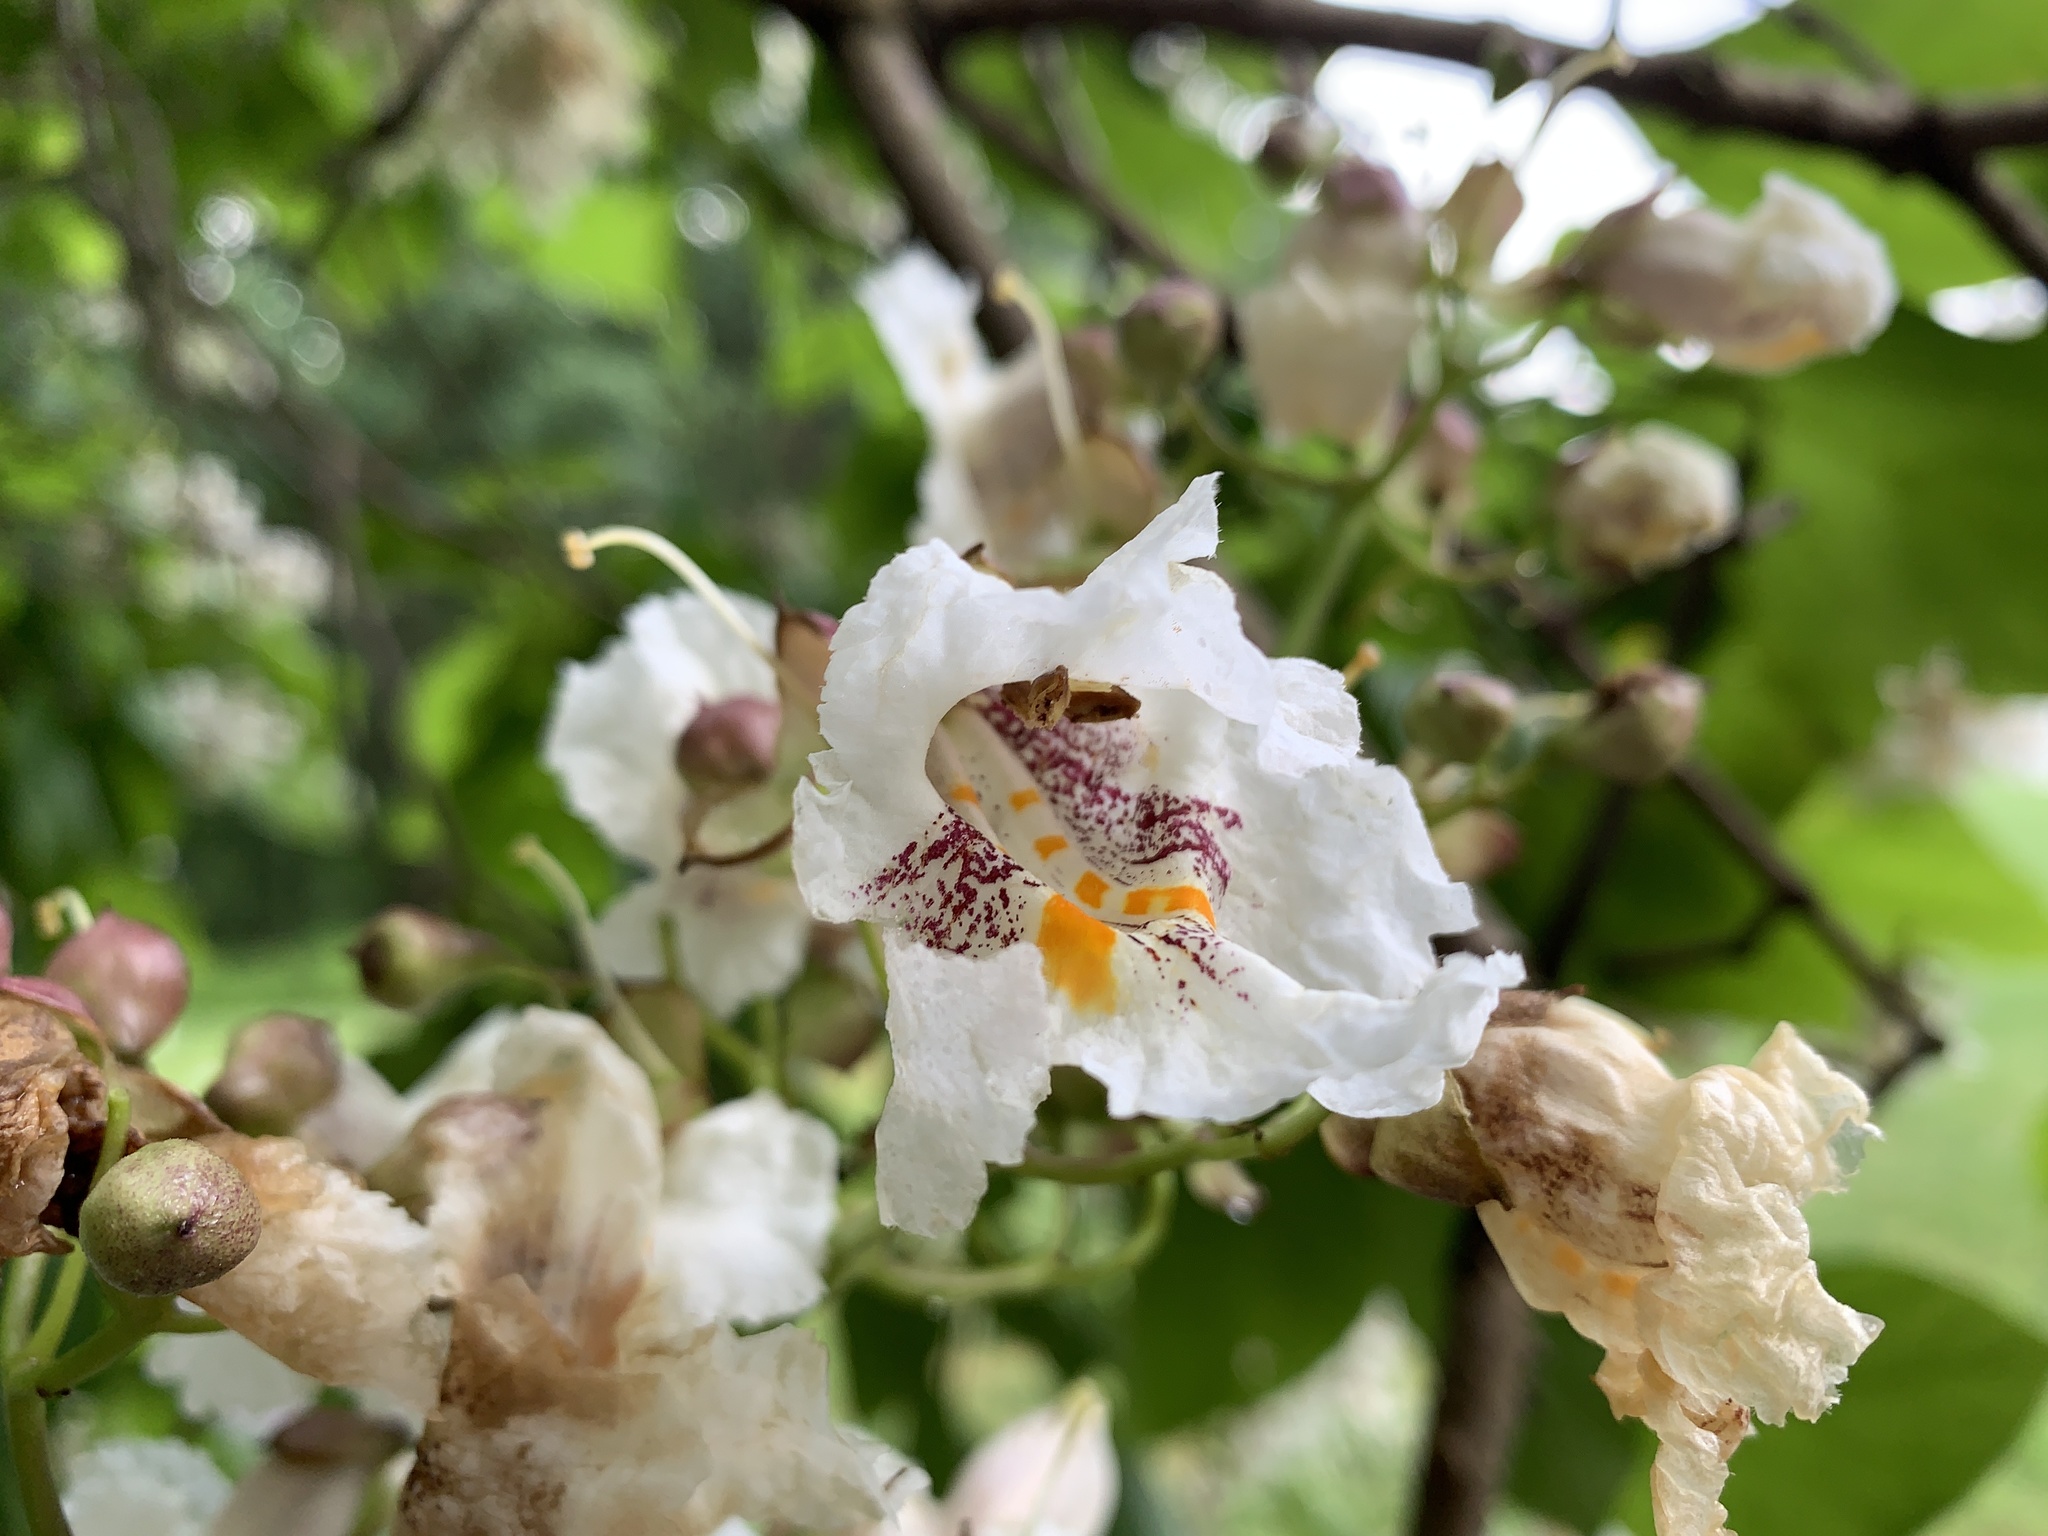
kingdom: Plantae
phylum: Tracheophyta
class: Magnoliopsida
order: Lamiales
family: Bignoniaceae
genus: Catalpa
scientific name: Catalpa speciosa
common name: Northern catalpa
